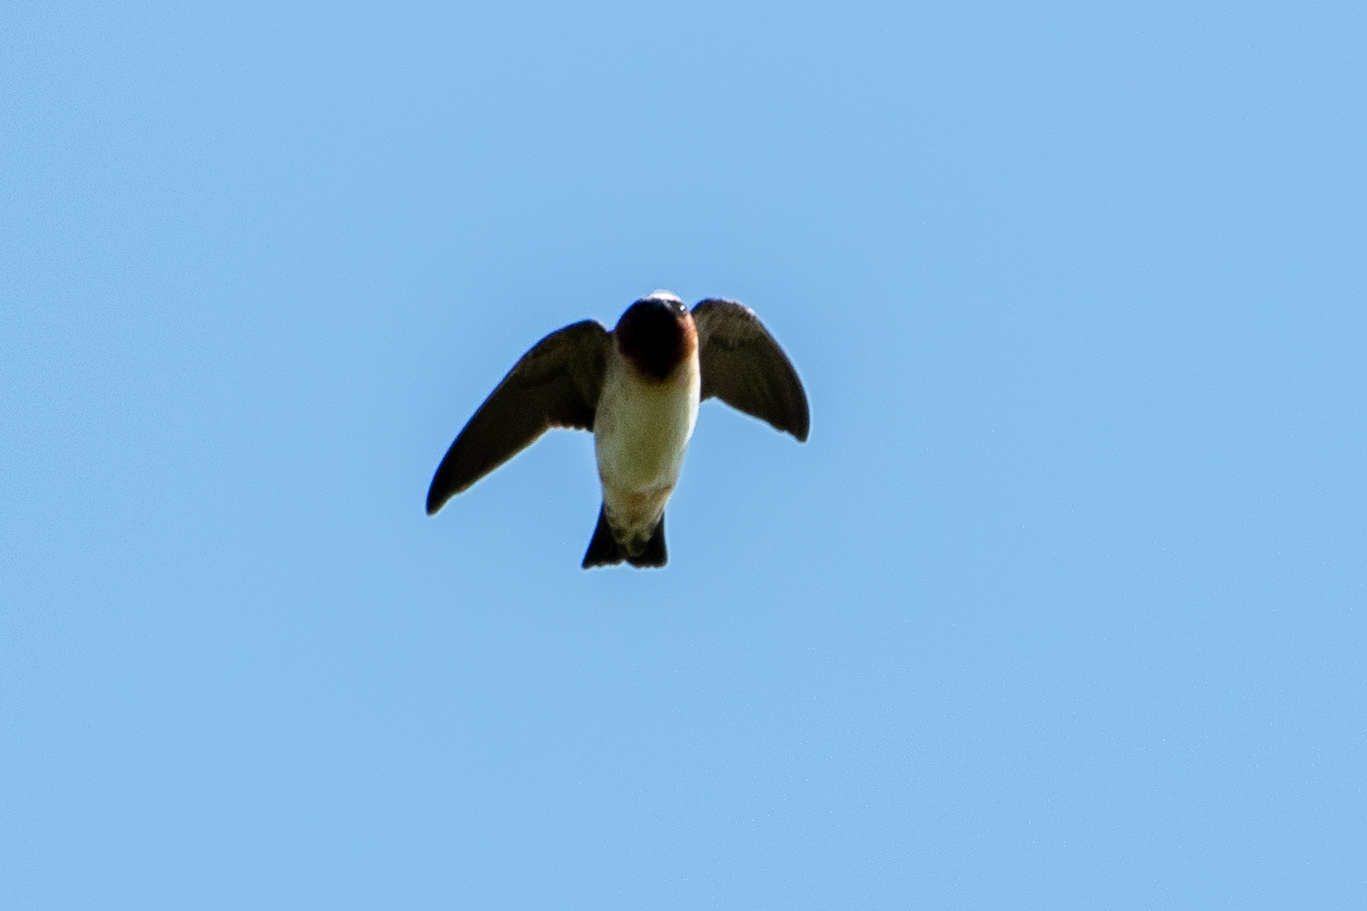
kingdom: Animalia
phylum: Chordata
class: Aves
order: Passeriformes
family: Hirundinidae
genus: Petrochelidon
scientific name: Petrochelidon pyrrhonota
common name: American cliff swallow
